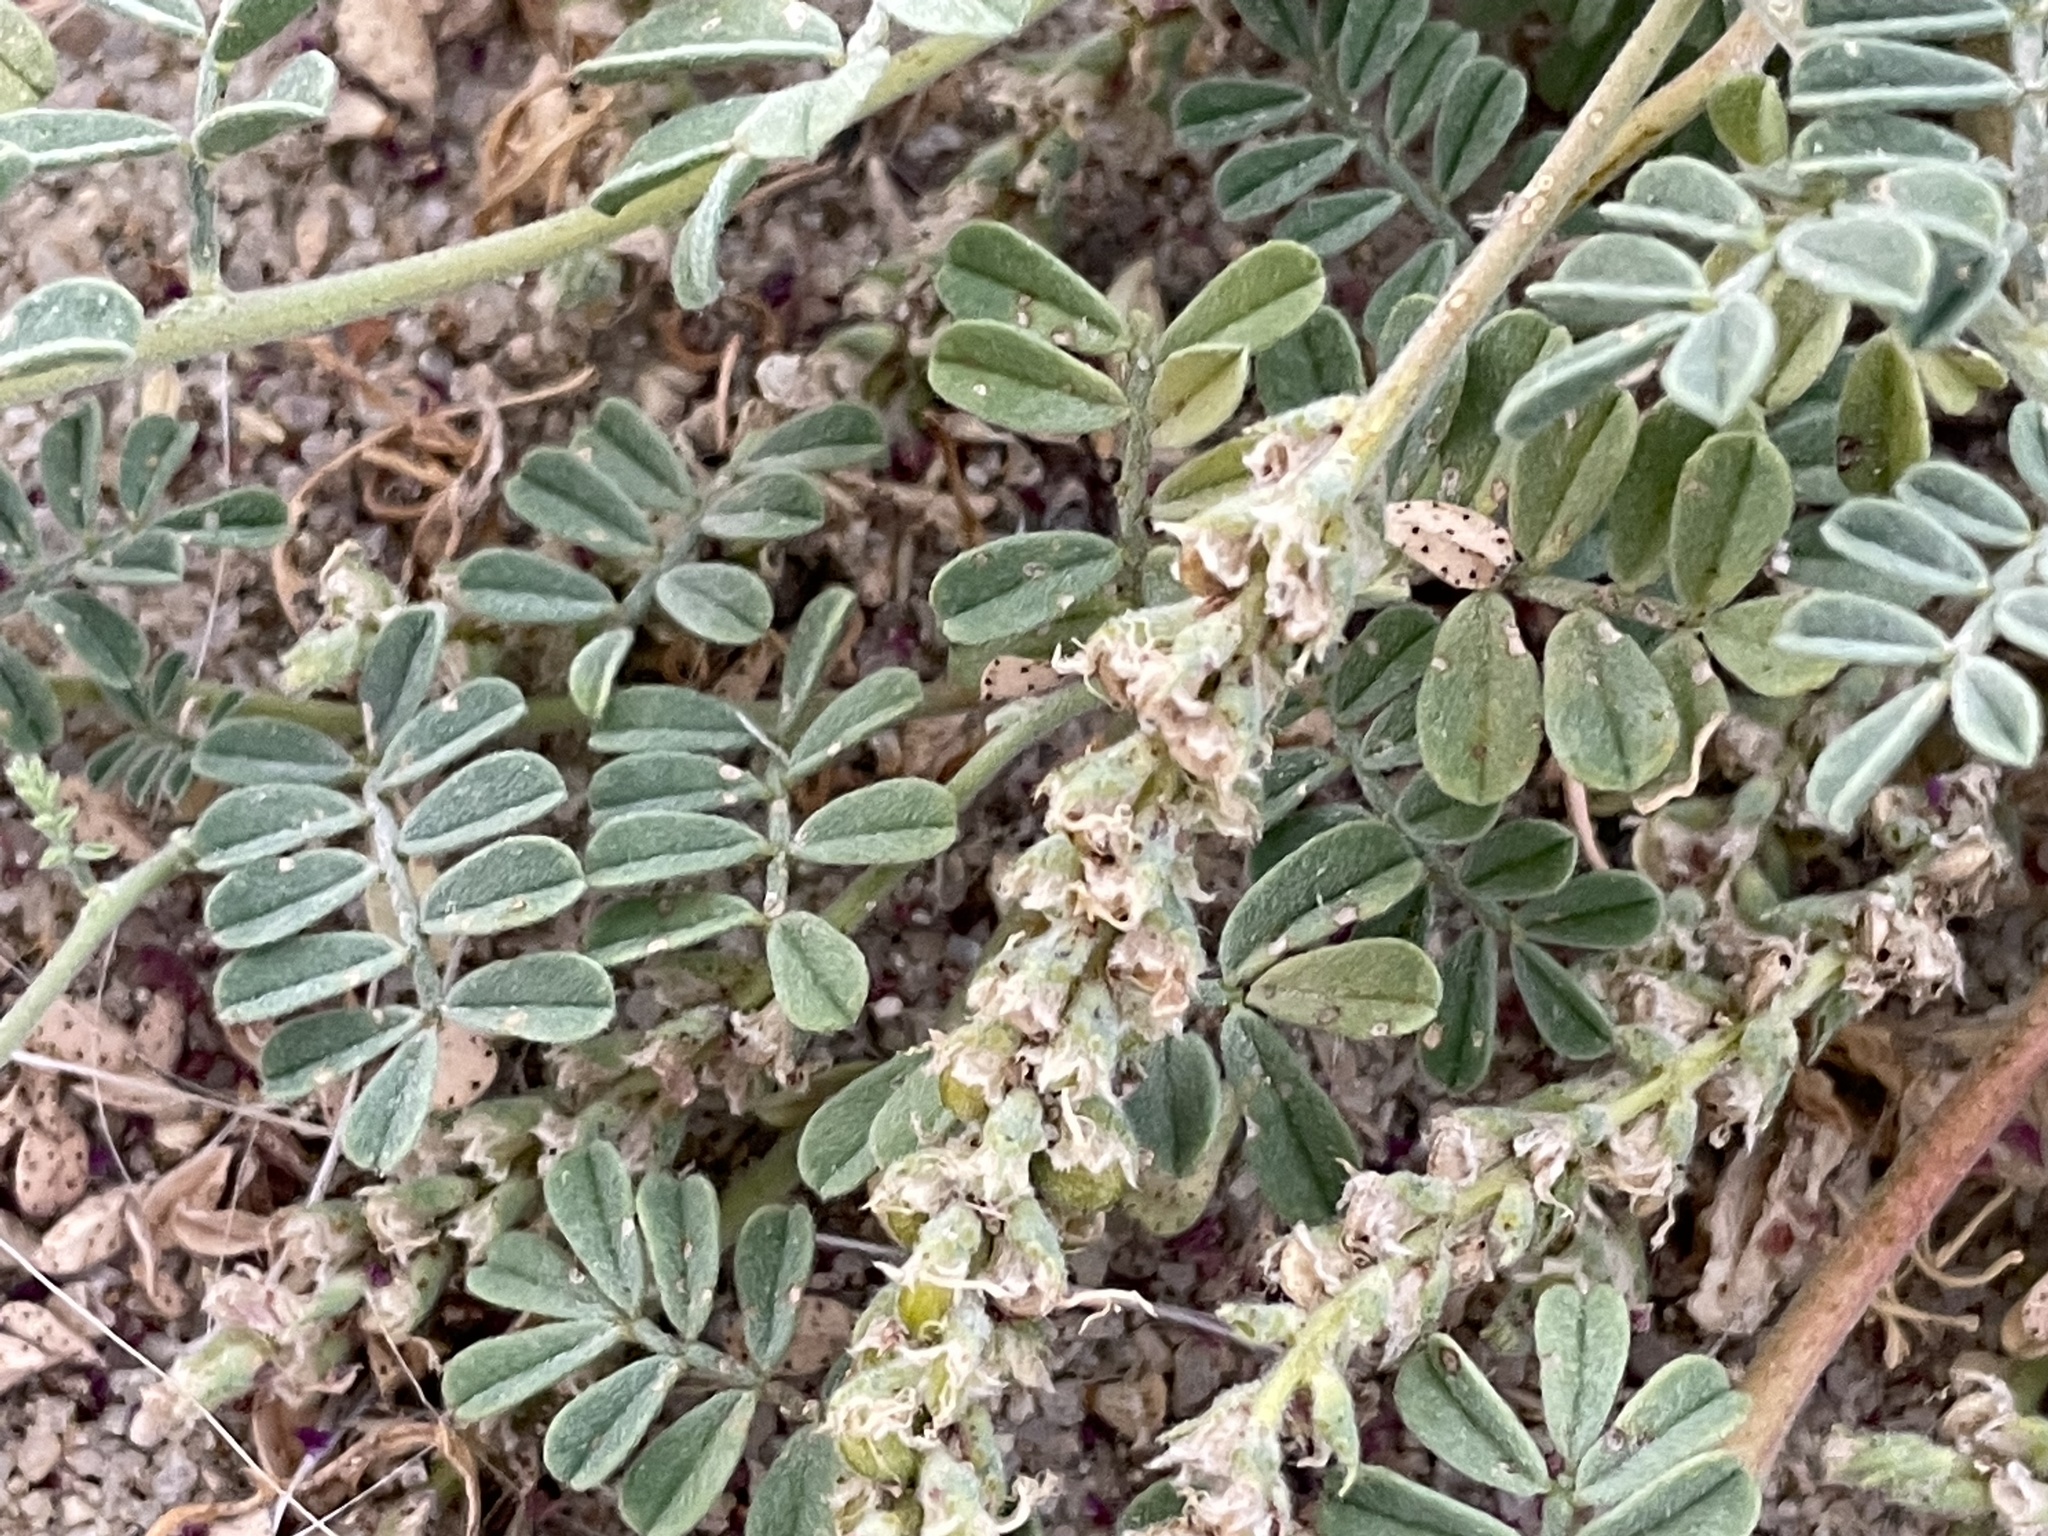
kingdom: Plantae
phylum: Tracheophyta
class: Magnoliopsida
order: Fabales
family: Fabaceae
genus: Dalea
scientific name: Dalea lanata
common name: Woolly dalea
